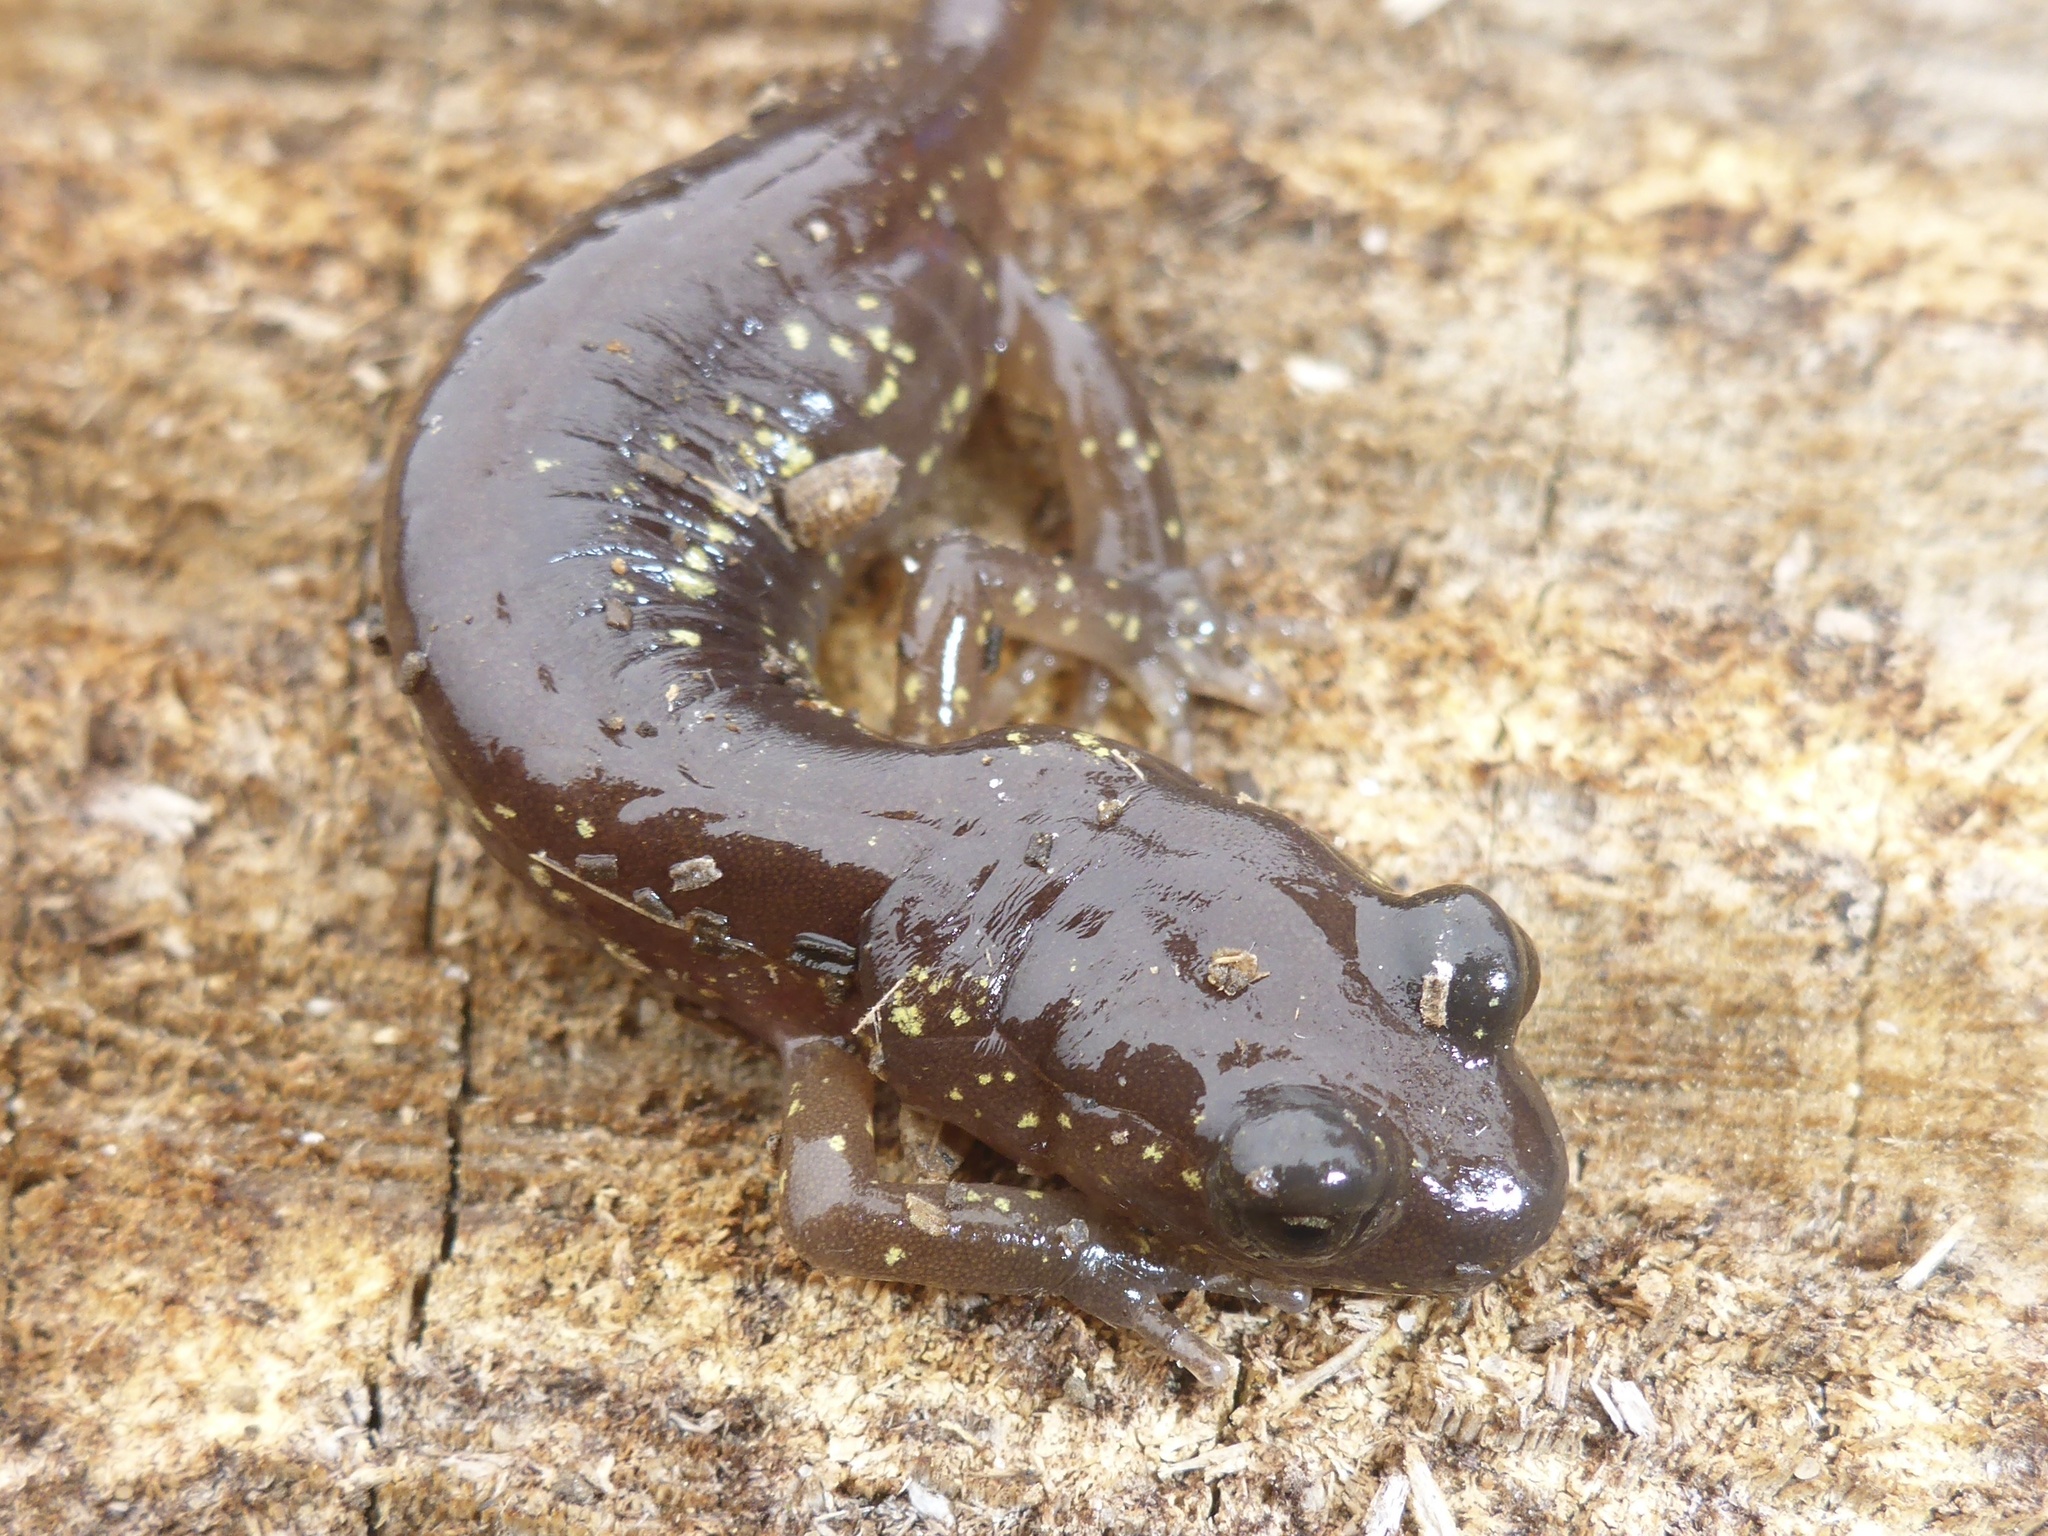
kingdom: Animalia
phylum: Chordata
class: Amphibia
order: Caudata
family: Plethodontidae
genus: Aneides
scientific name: Aneides lugubris
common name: Arboreal salamander
